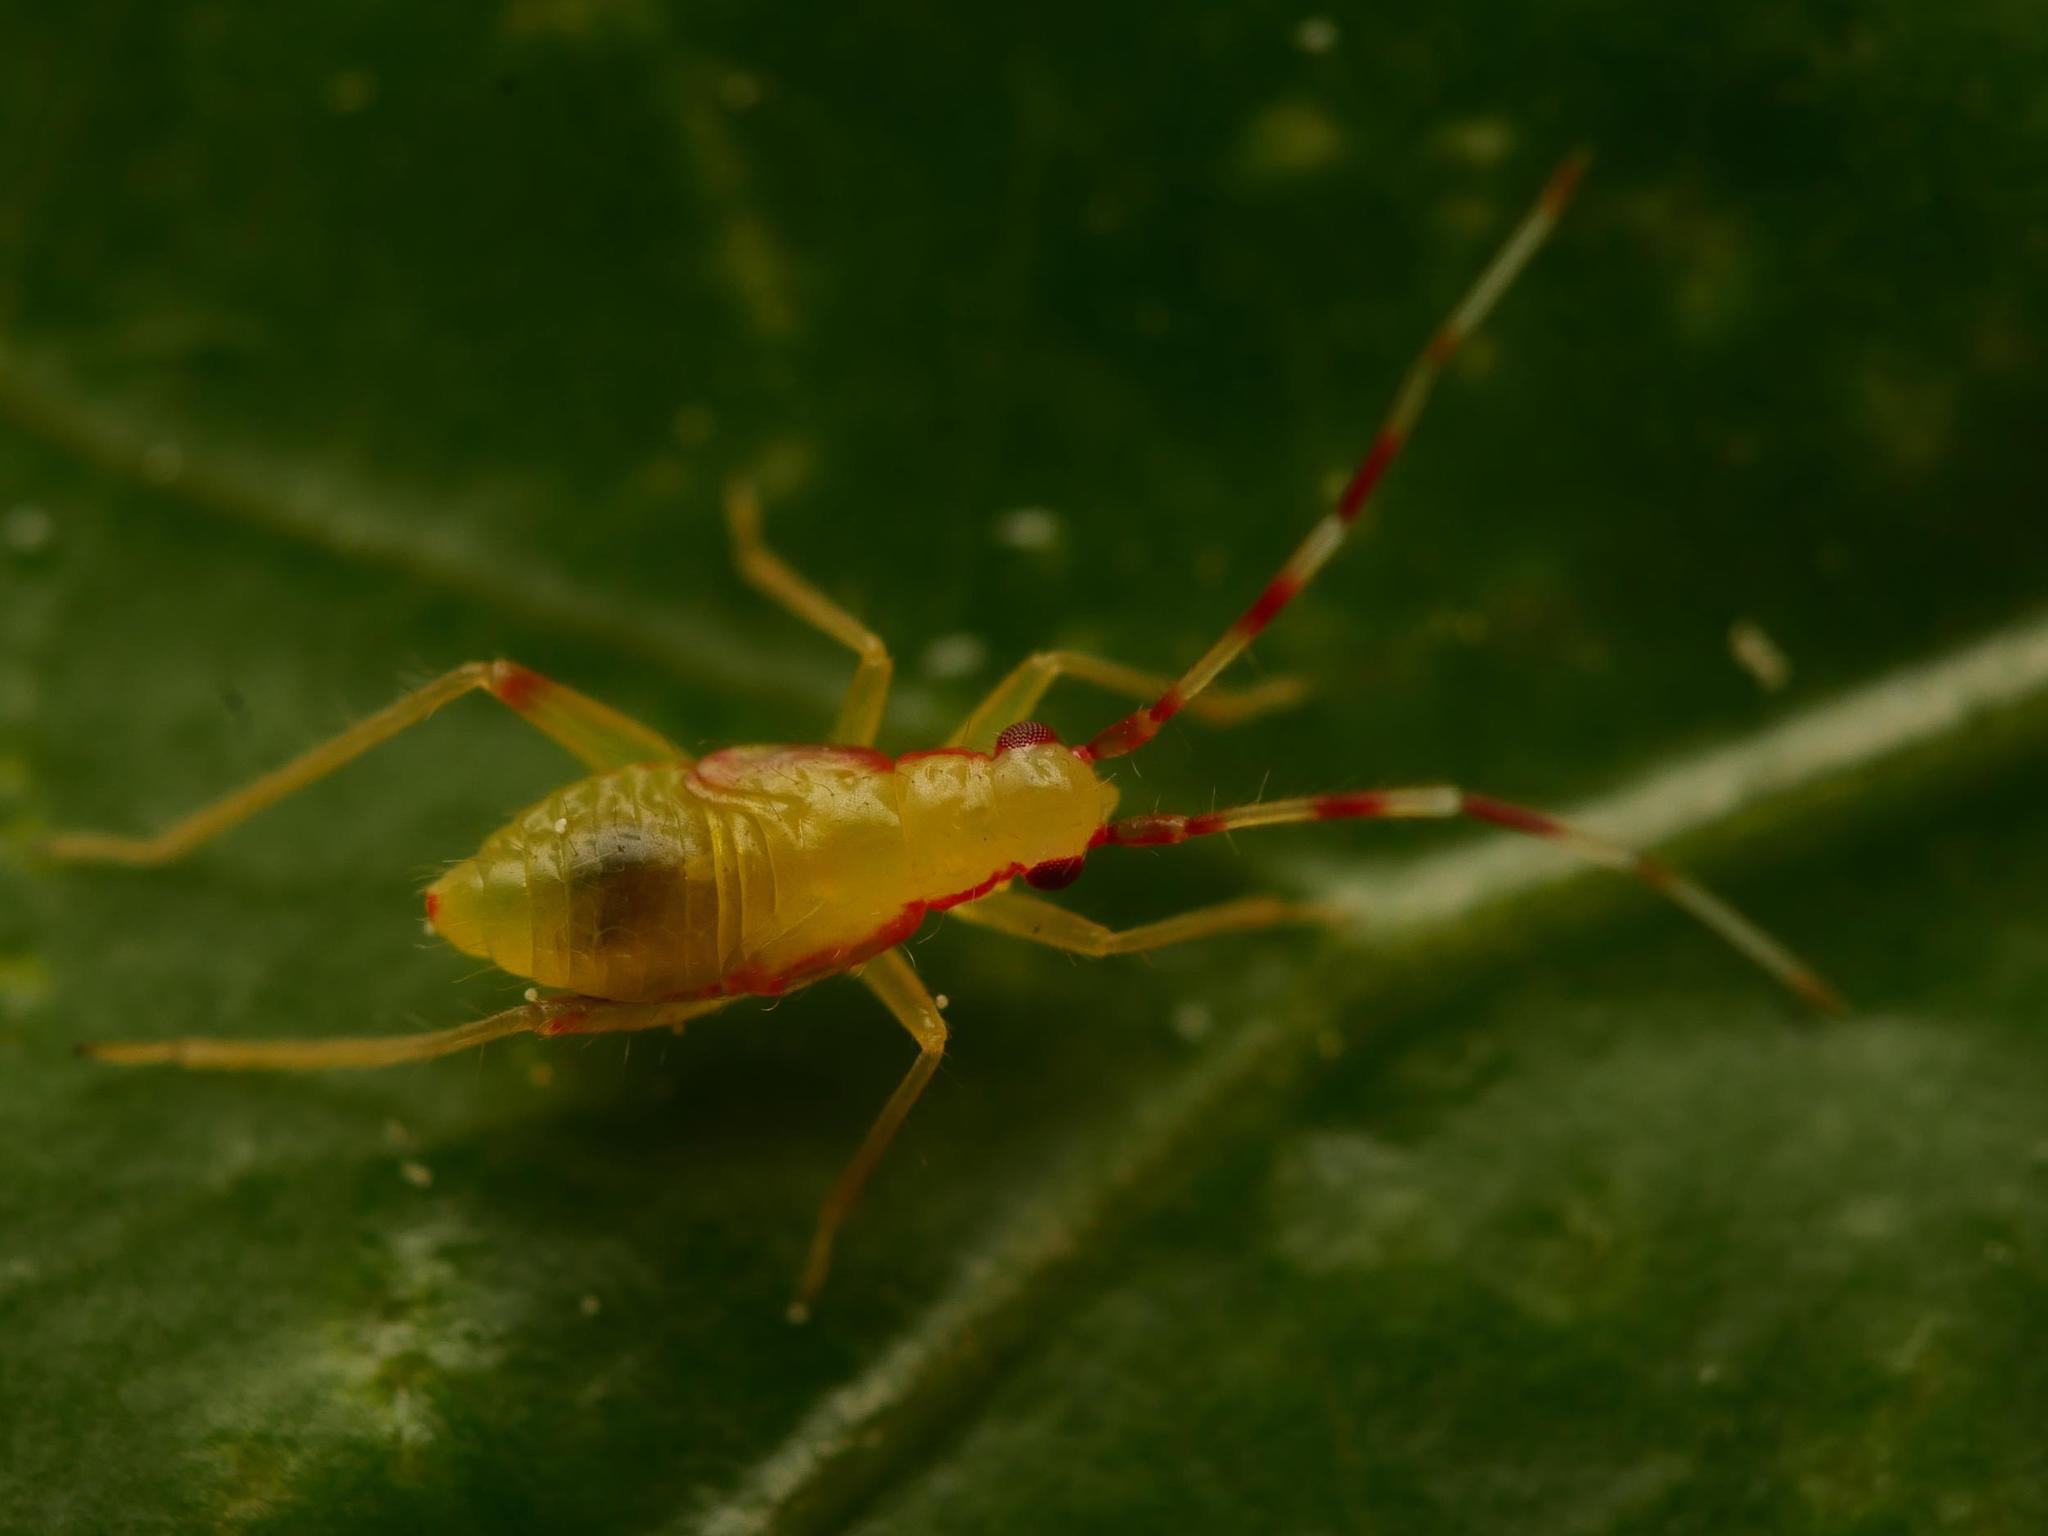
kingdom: Animalia
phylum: Arthropoda
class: Insecta
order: Hemiptera
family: Miridae
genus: Campyloneura
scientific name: Campyloneura virgula
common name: Predatory bug
